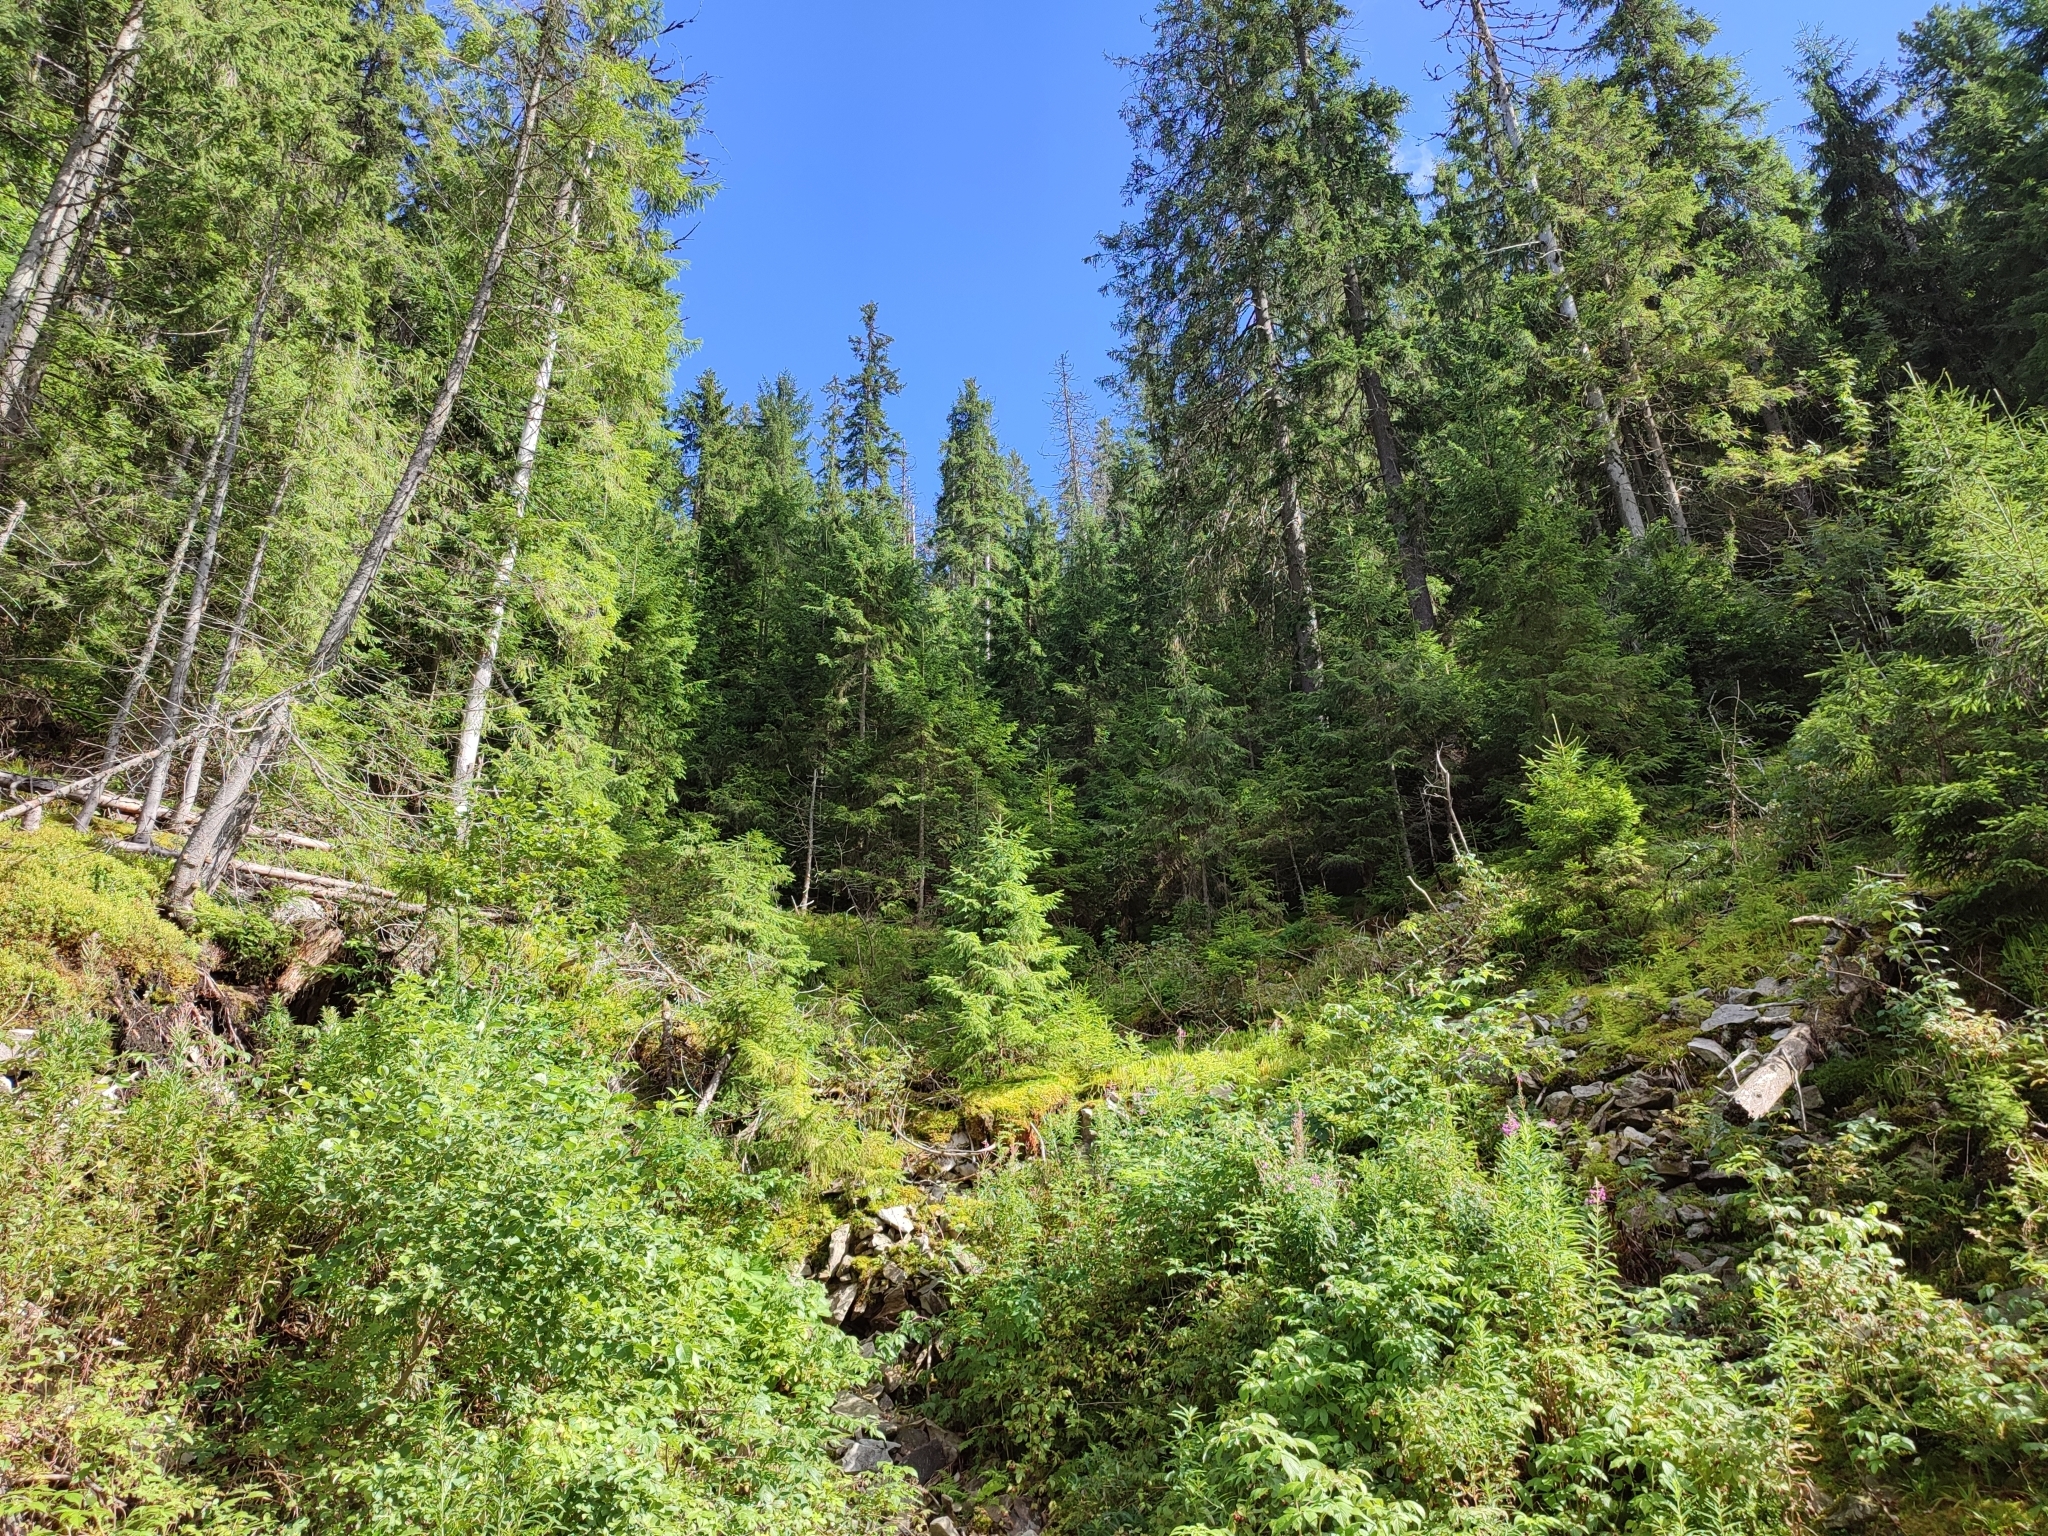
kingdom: Plantae
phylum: Tracheophyta
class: Pinopsida
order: Pinales
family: Pinaceae
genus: Picea
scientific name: Picea abies
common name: Norway spruce
